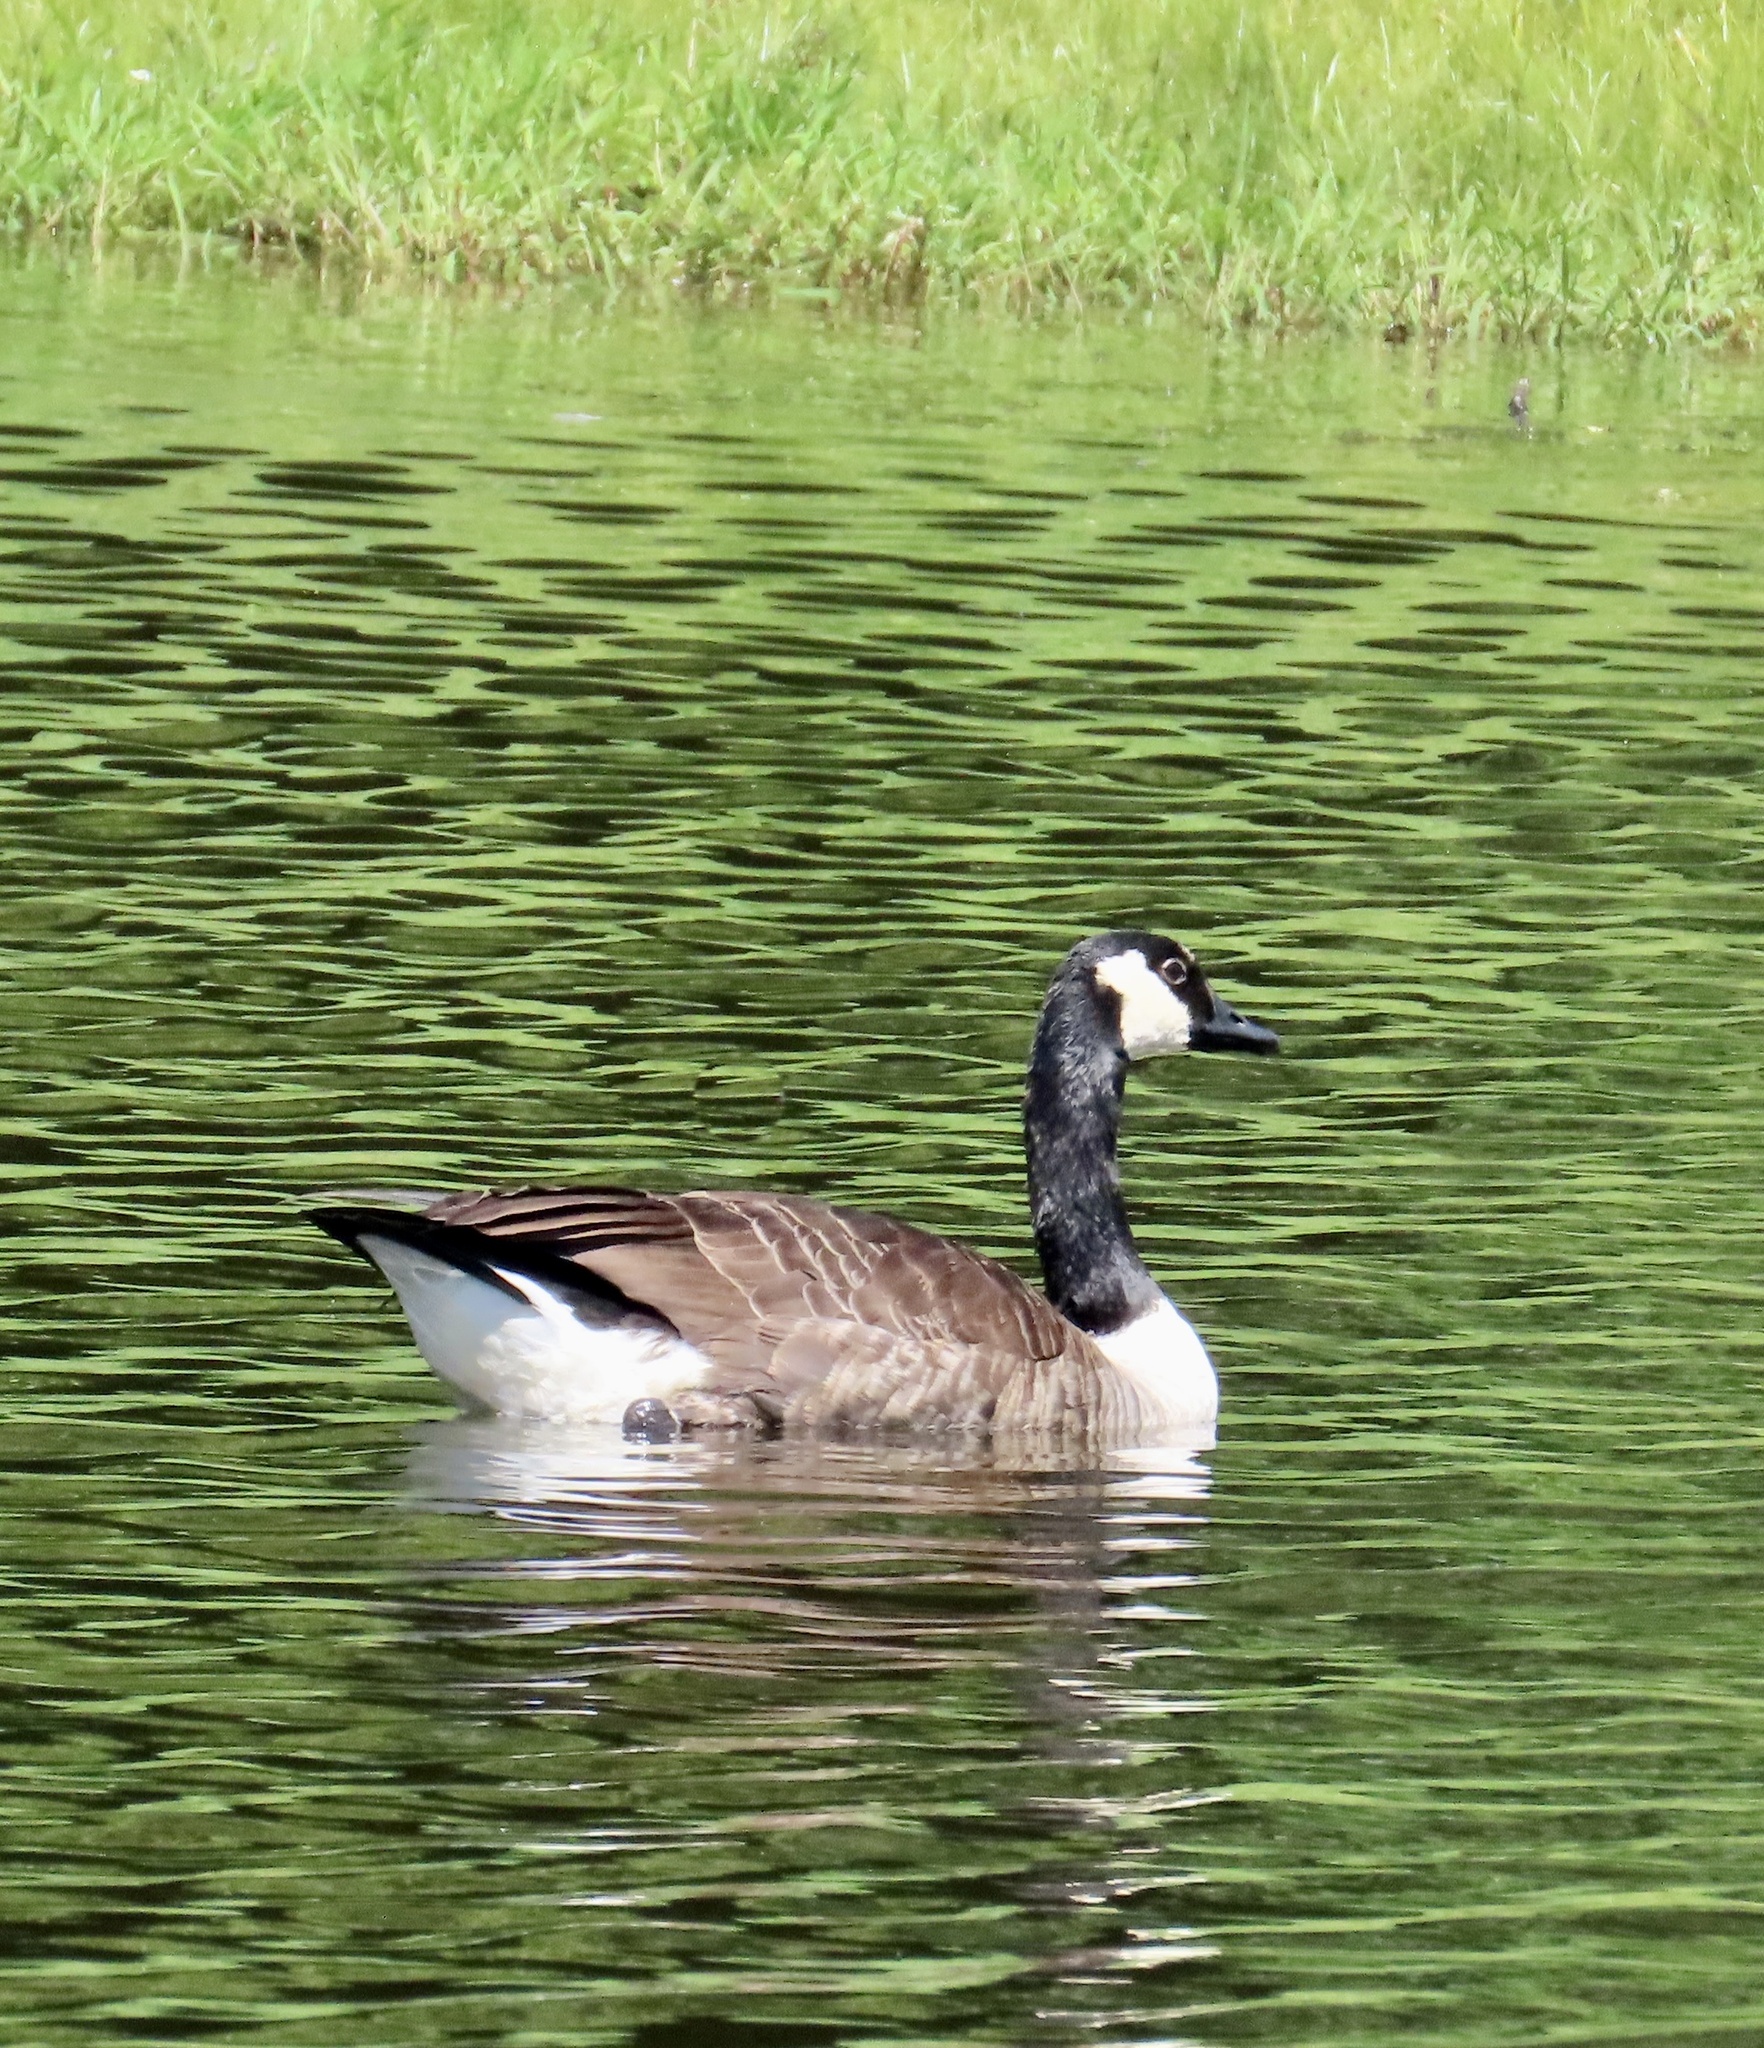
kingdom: Animalia
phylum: Chordata
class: Aves
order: Anseriformes
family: Anatidae
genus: Branta
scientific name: Branta canadensis
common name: Canada goose
